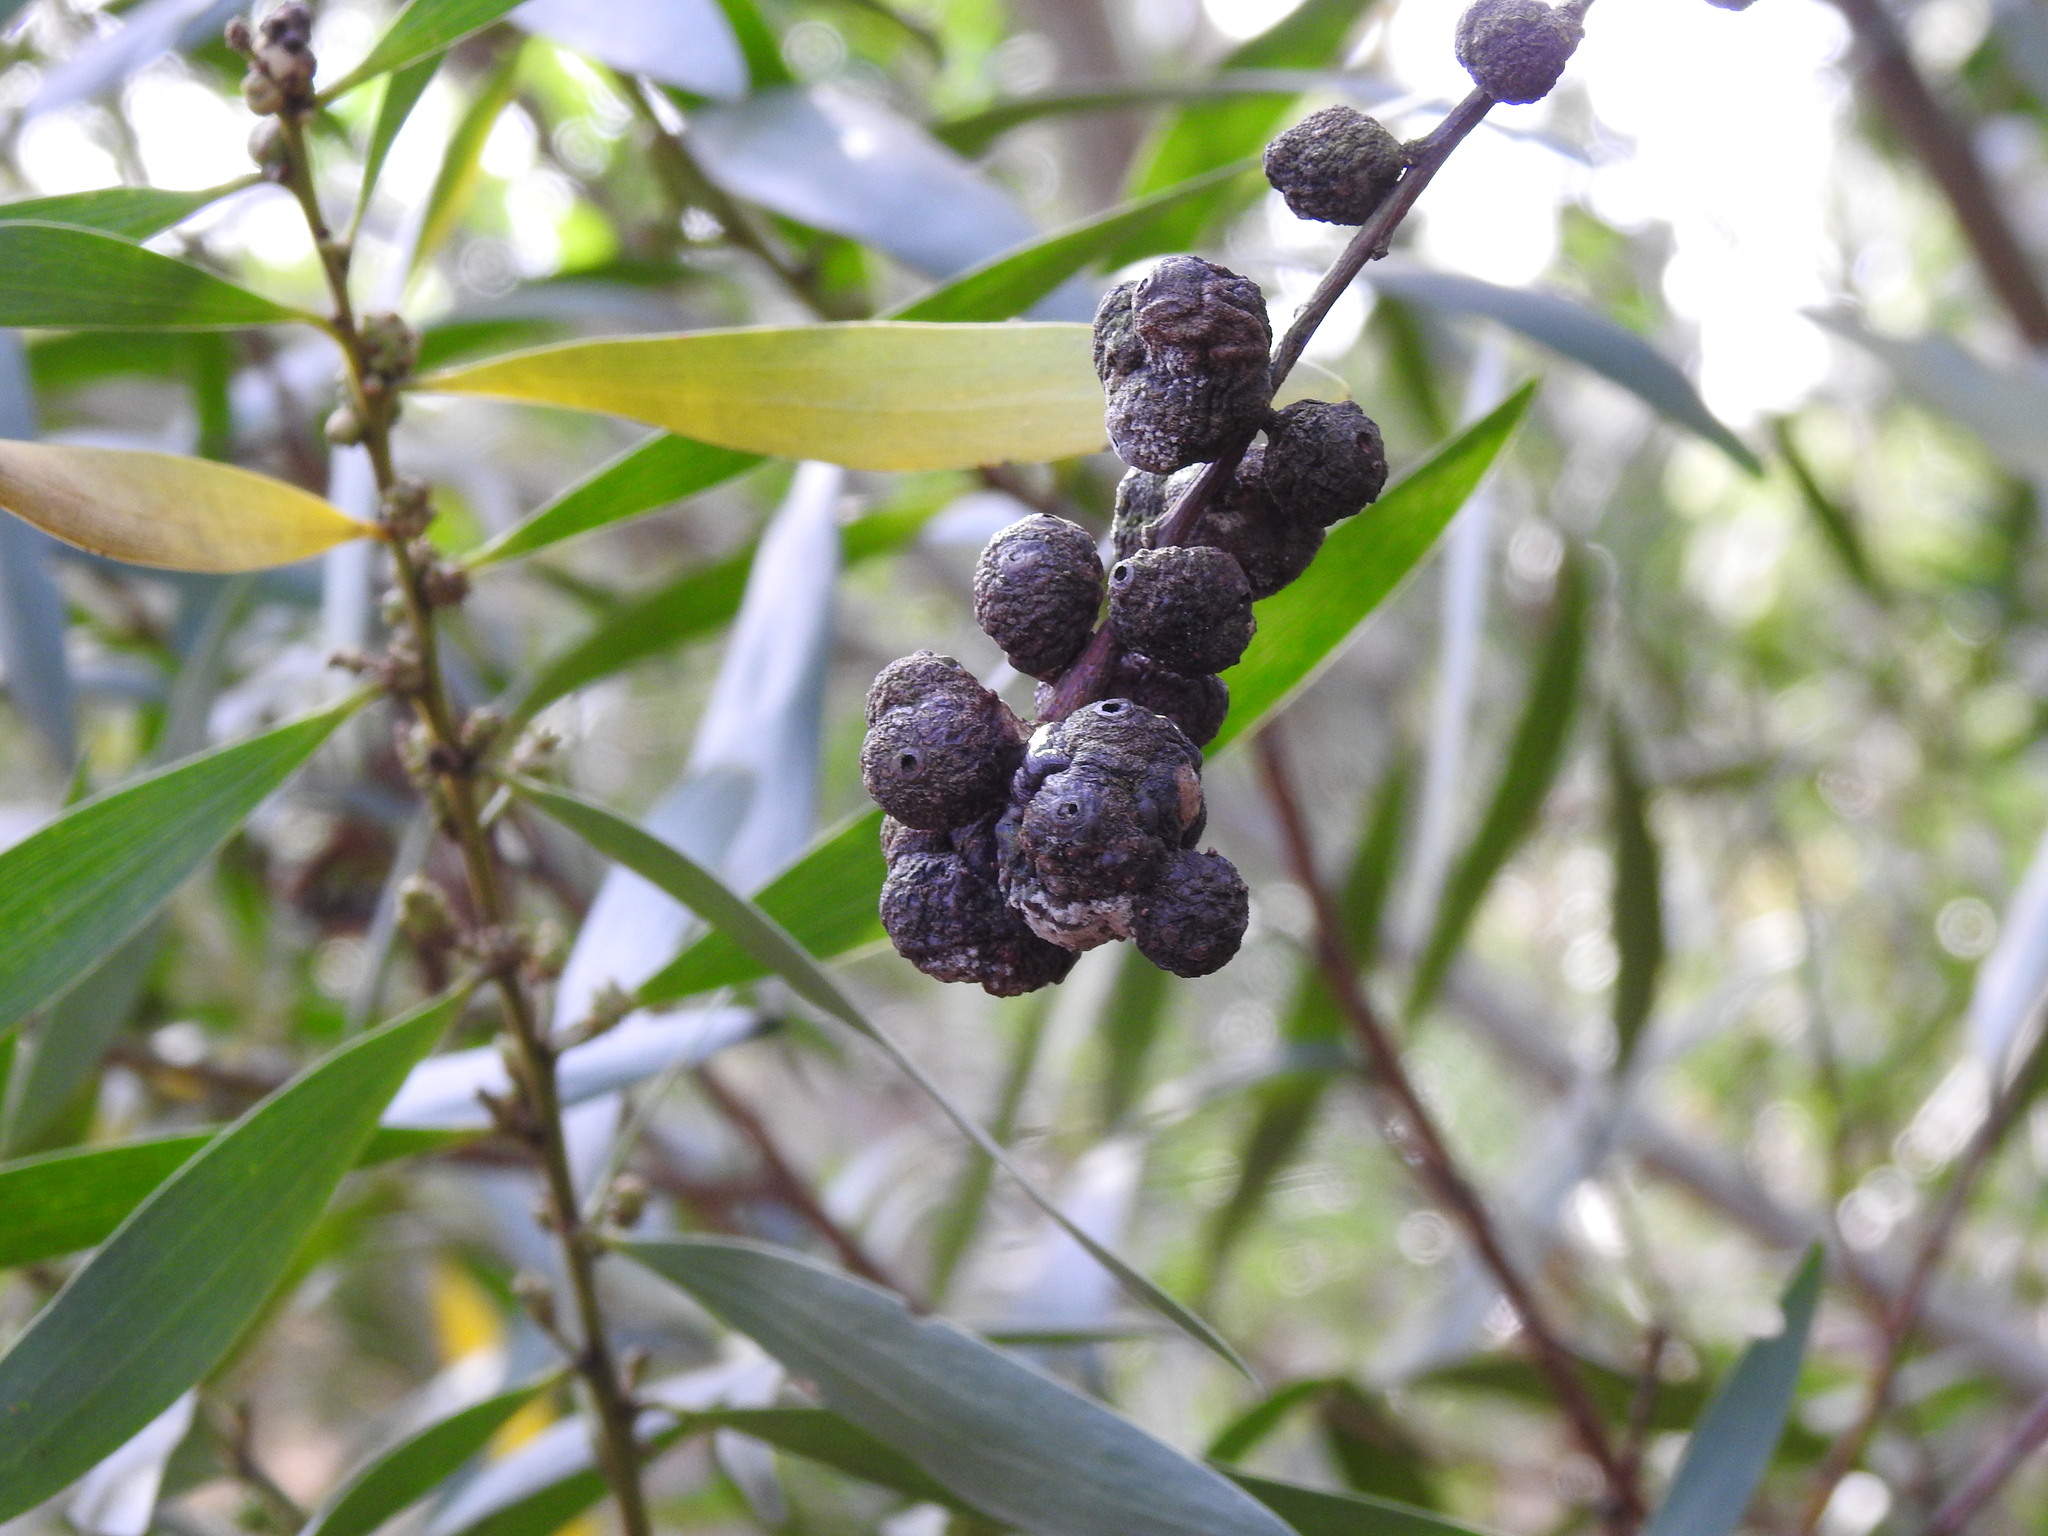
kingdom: Animalia
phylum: Arthropoda
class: Insecta
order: Hymenoptera
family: Pteromalidae
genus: Trichilogaster
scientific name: Trichilogaster acaciaelongifoliae
